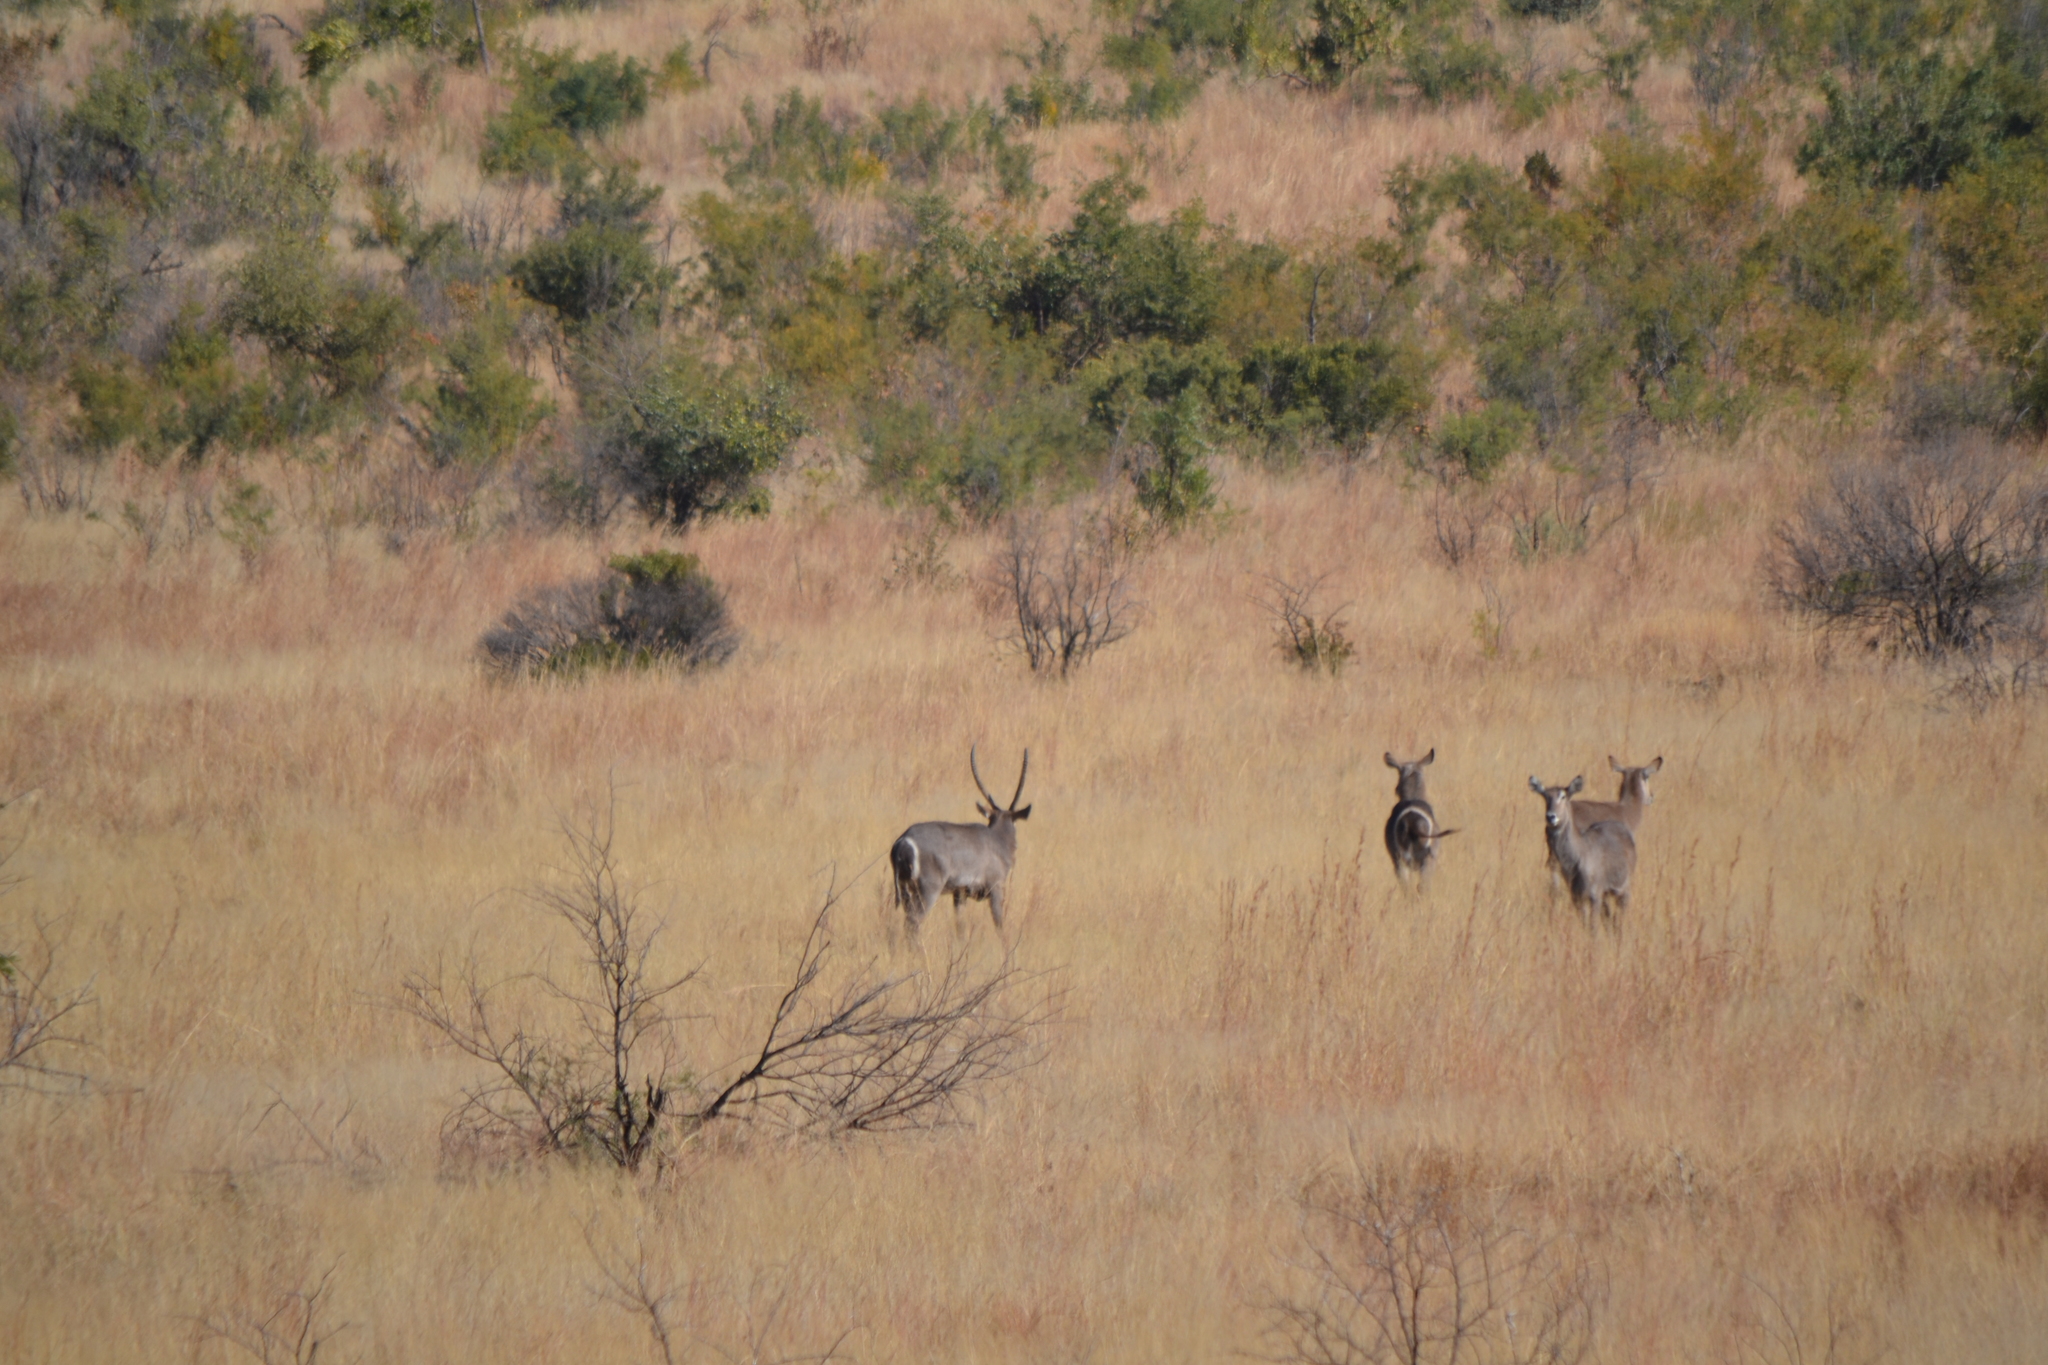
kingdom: Animalia
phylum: Chordata
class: Mammalia
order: Artiodactyla
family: Bovidae
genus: Kobus
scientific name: Kobus ellipsiprymnus
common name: Waterbuck
